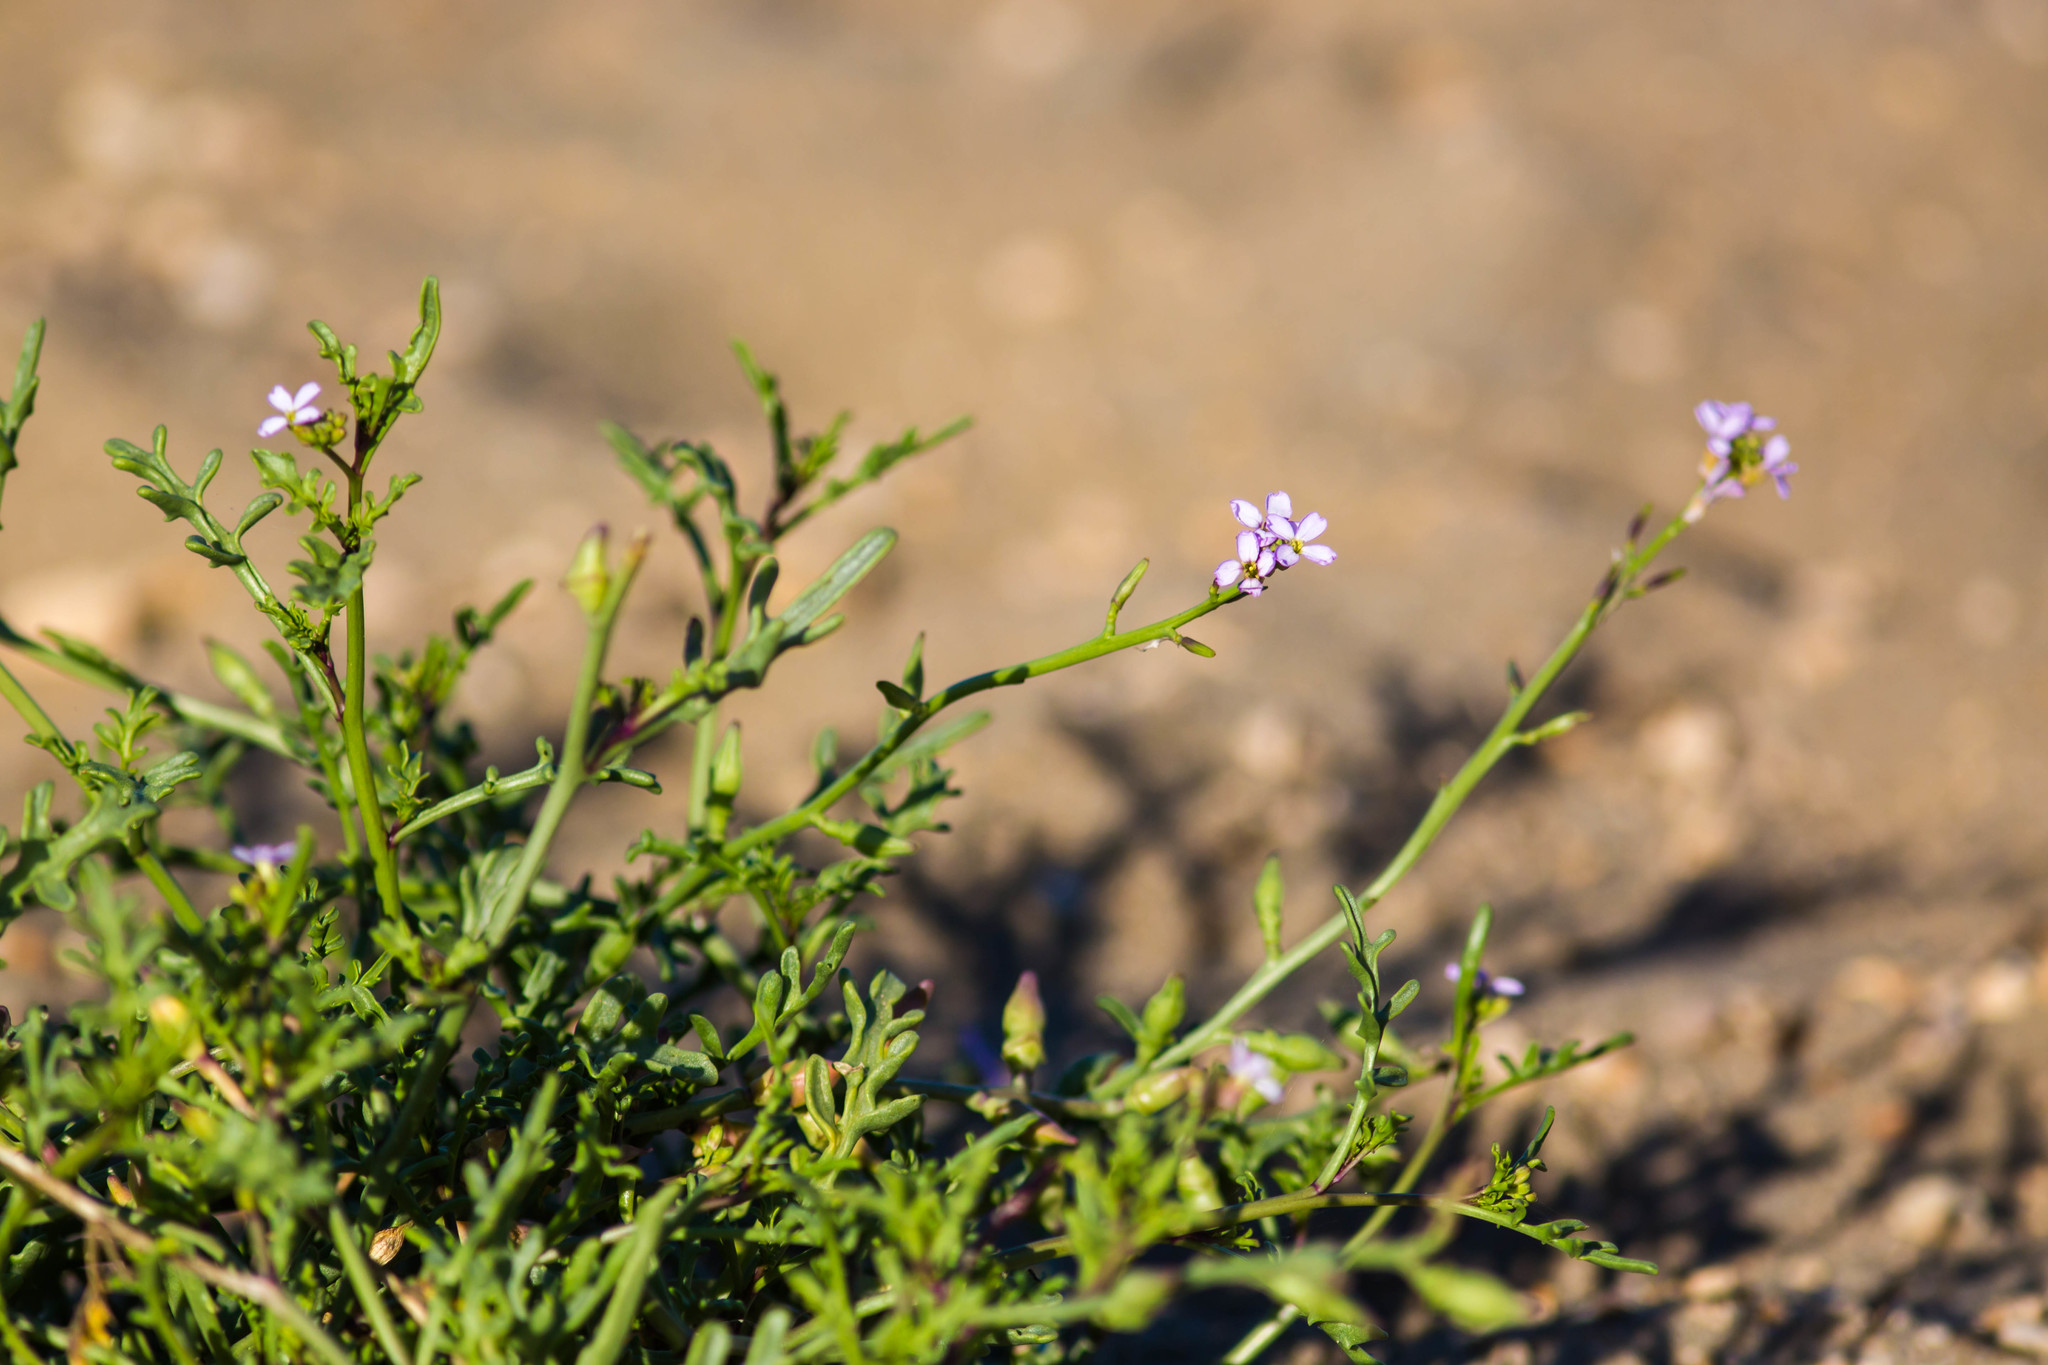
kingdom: Plantae
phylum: Tracheophyta
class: Magnoliopsida
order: Brassicales
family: Brassicaceae
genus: Cakile
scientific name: Cakile maritima
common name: Sea rocket
